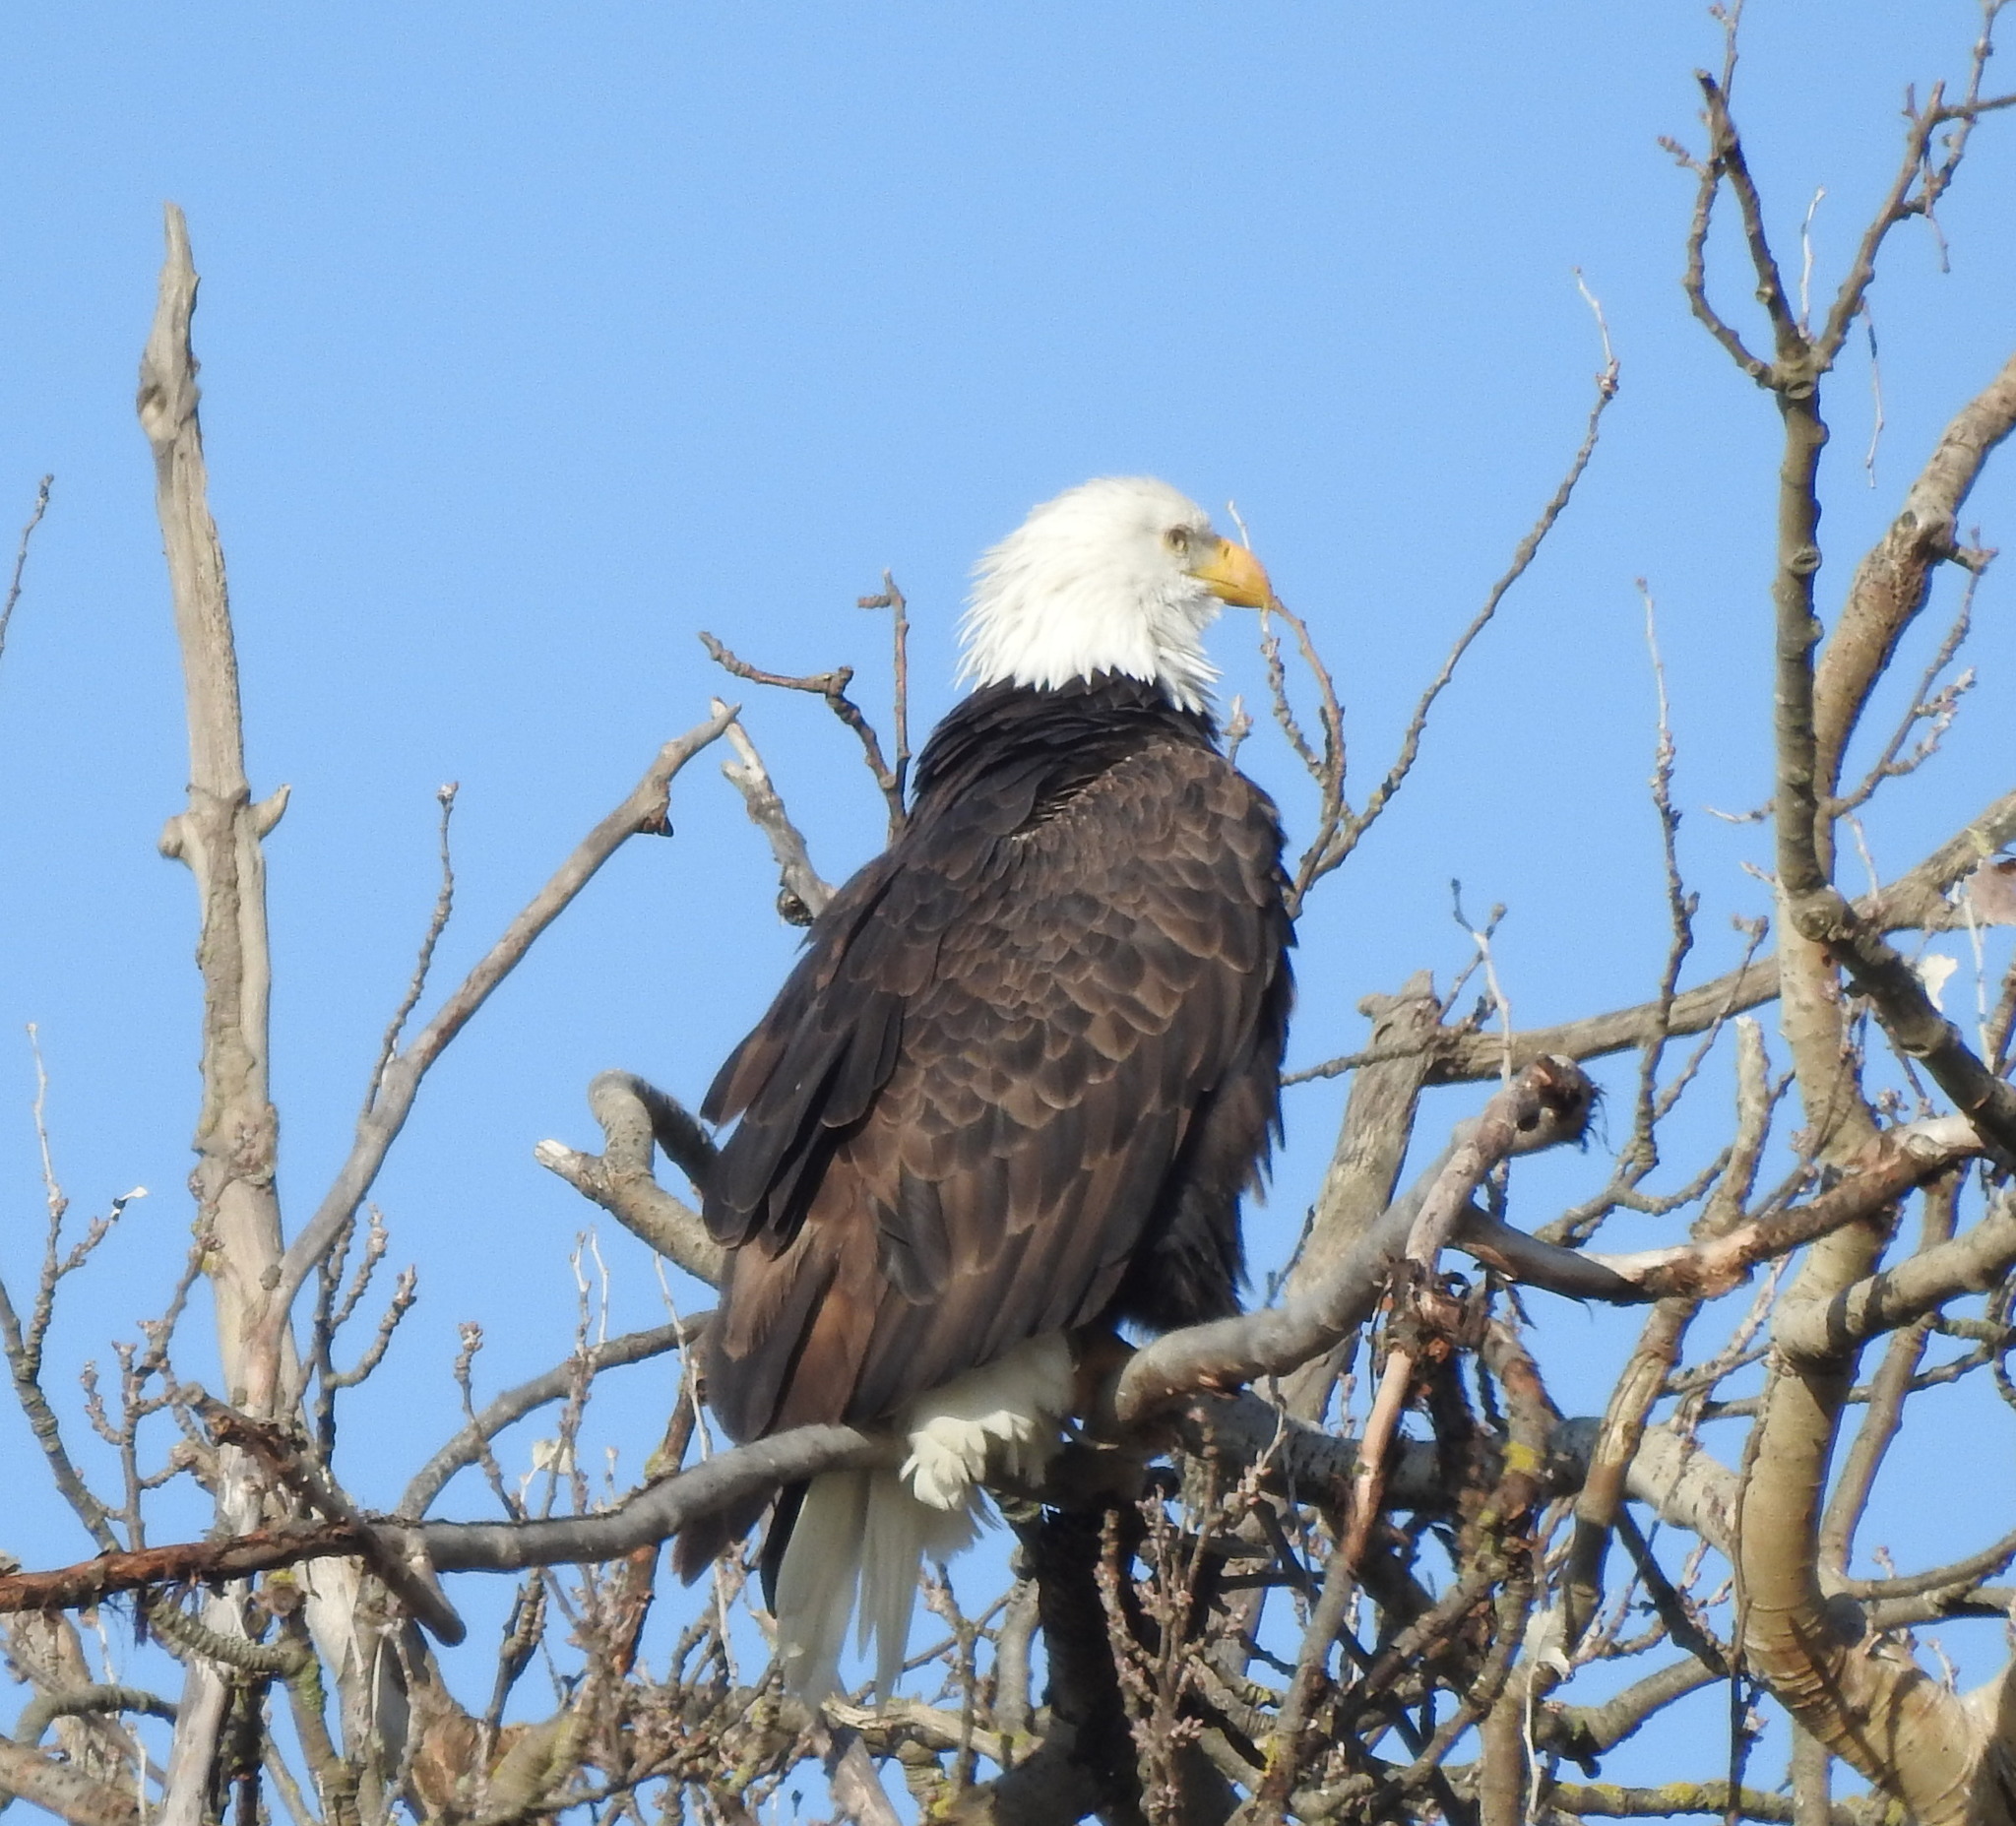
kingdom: Animalia
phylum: Chordata
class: Aves
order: Accipitriformes
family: Accipitridae
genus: Haliaeetus
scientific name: Haliaeetus leucocephalus
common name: Bald eagle
